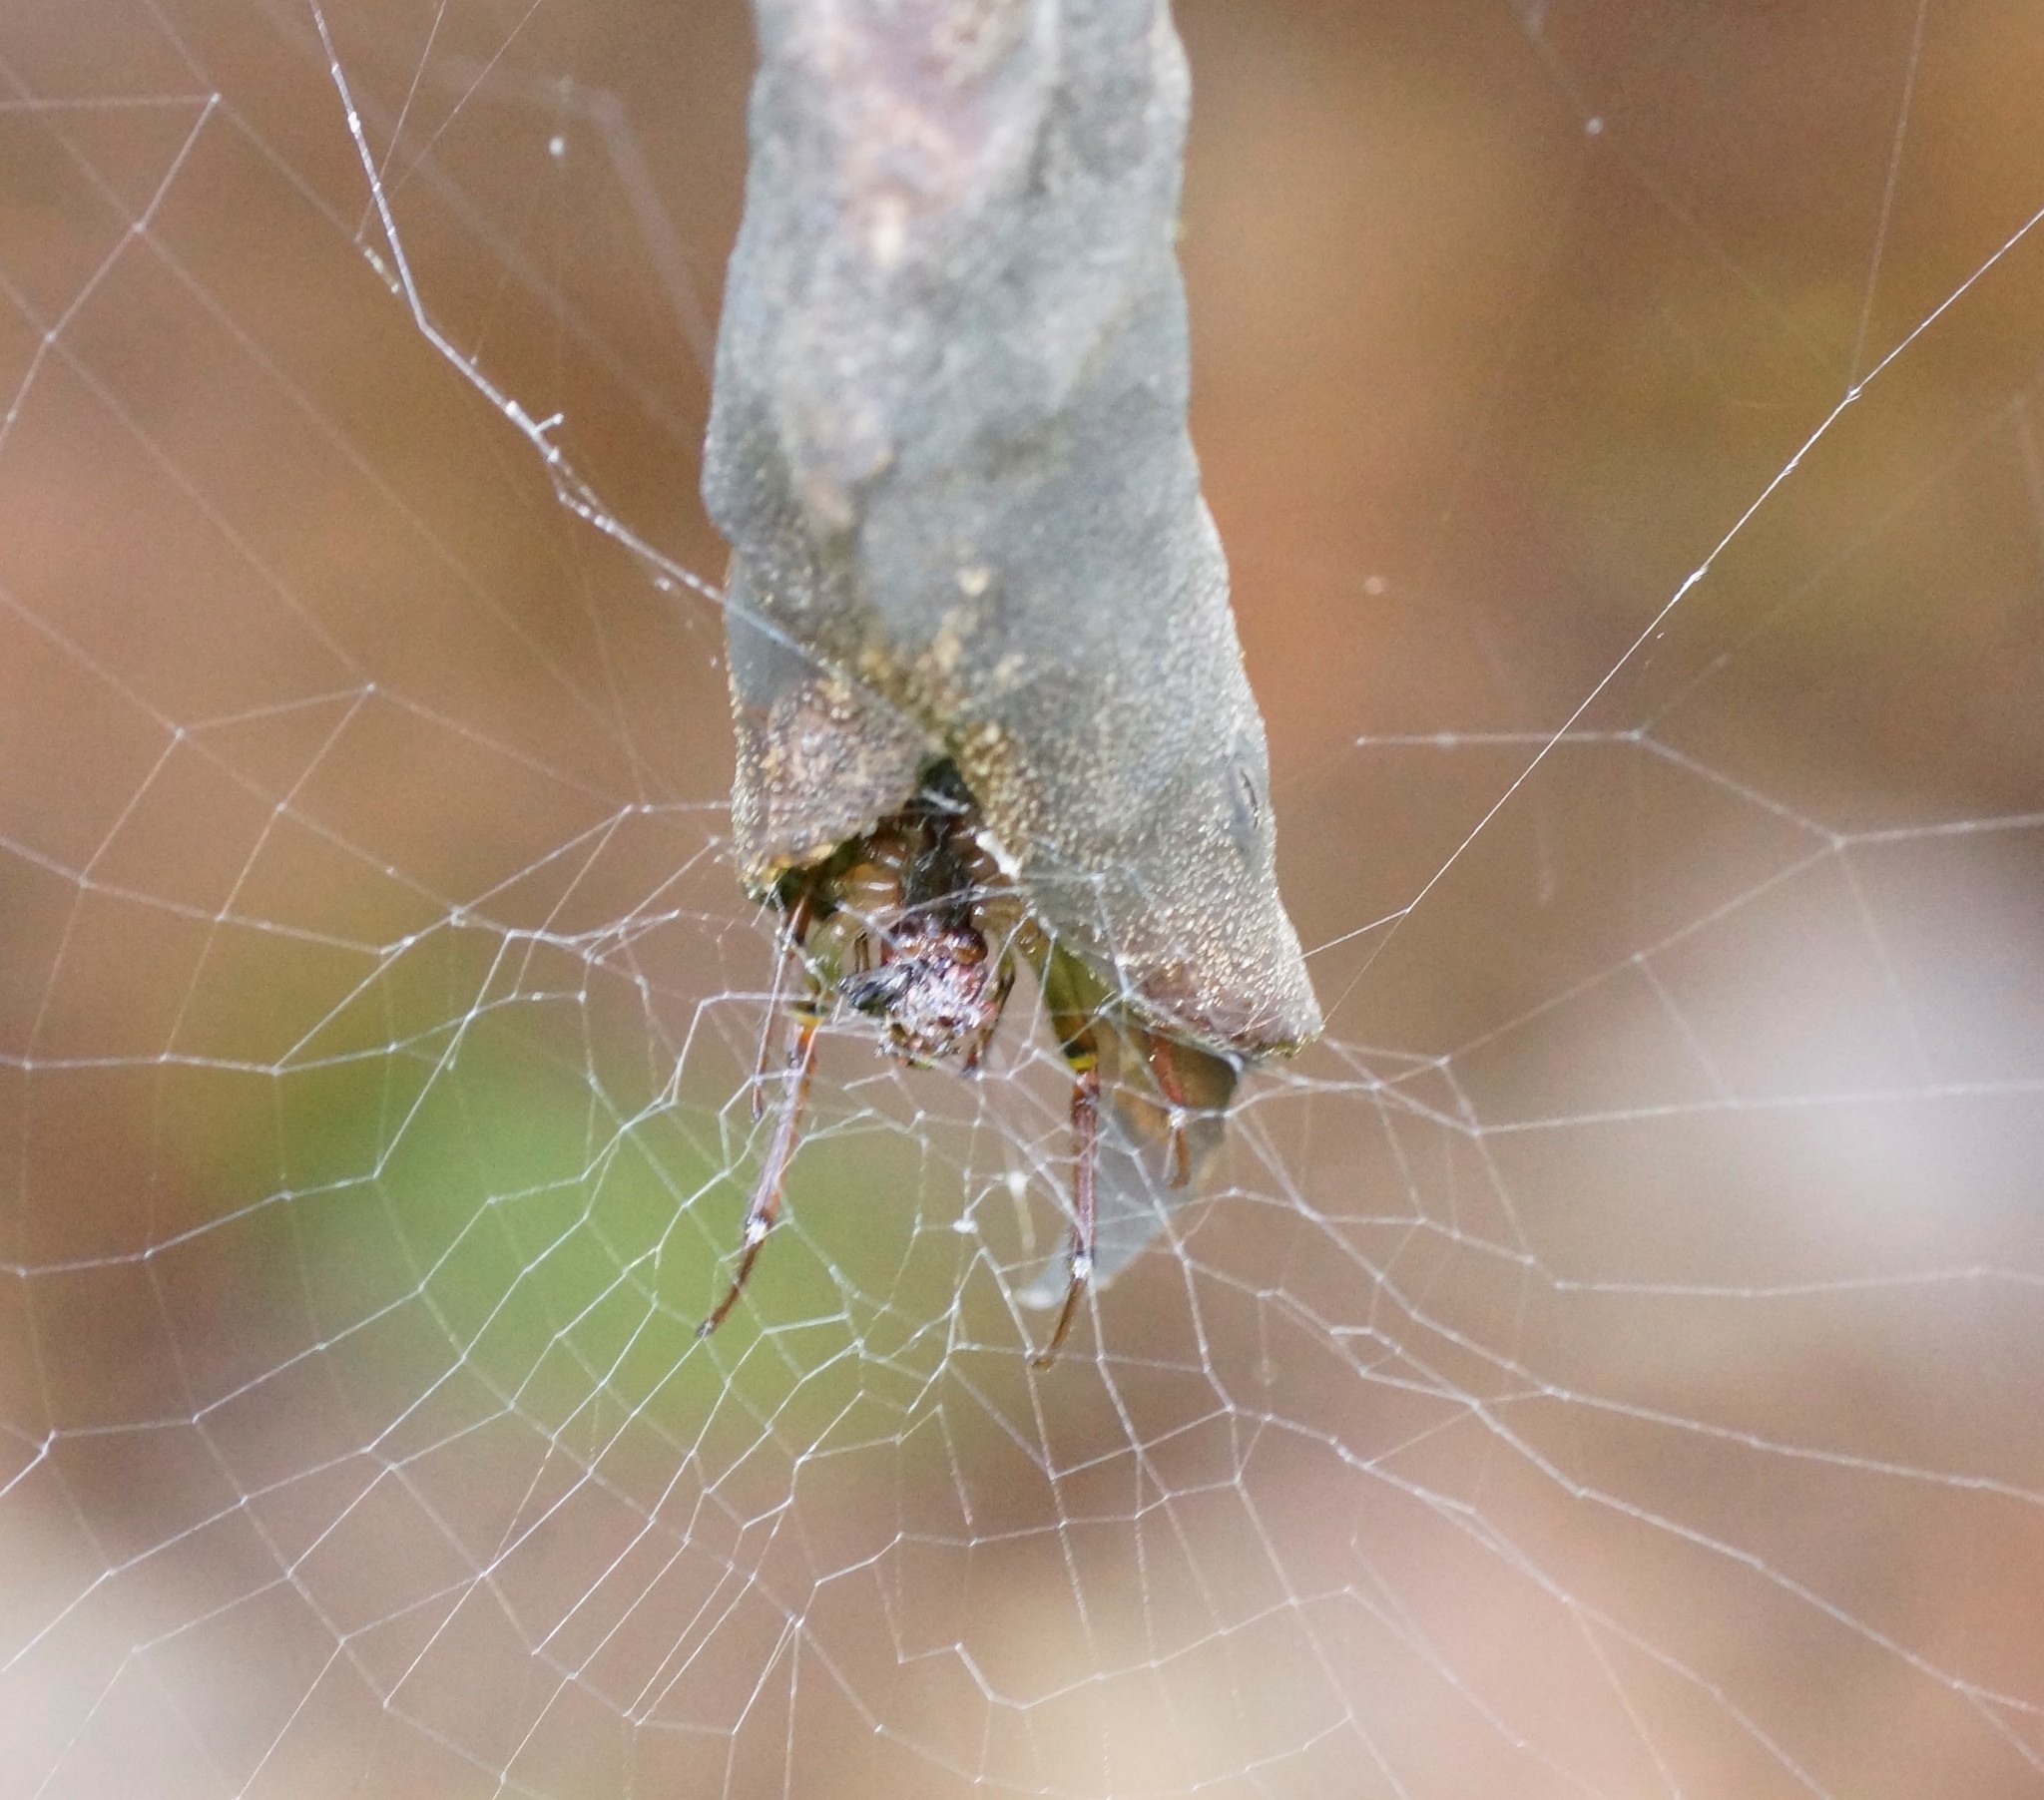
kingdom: Animalia
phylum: Arthropoda
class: Arachnida
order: Araneae
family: Araneidae
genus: Phonognatha
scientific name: Phonognatha graeffei
